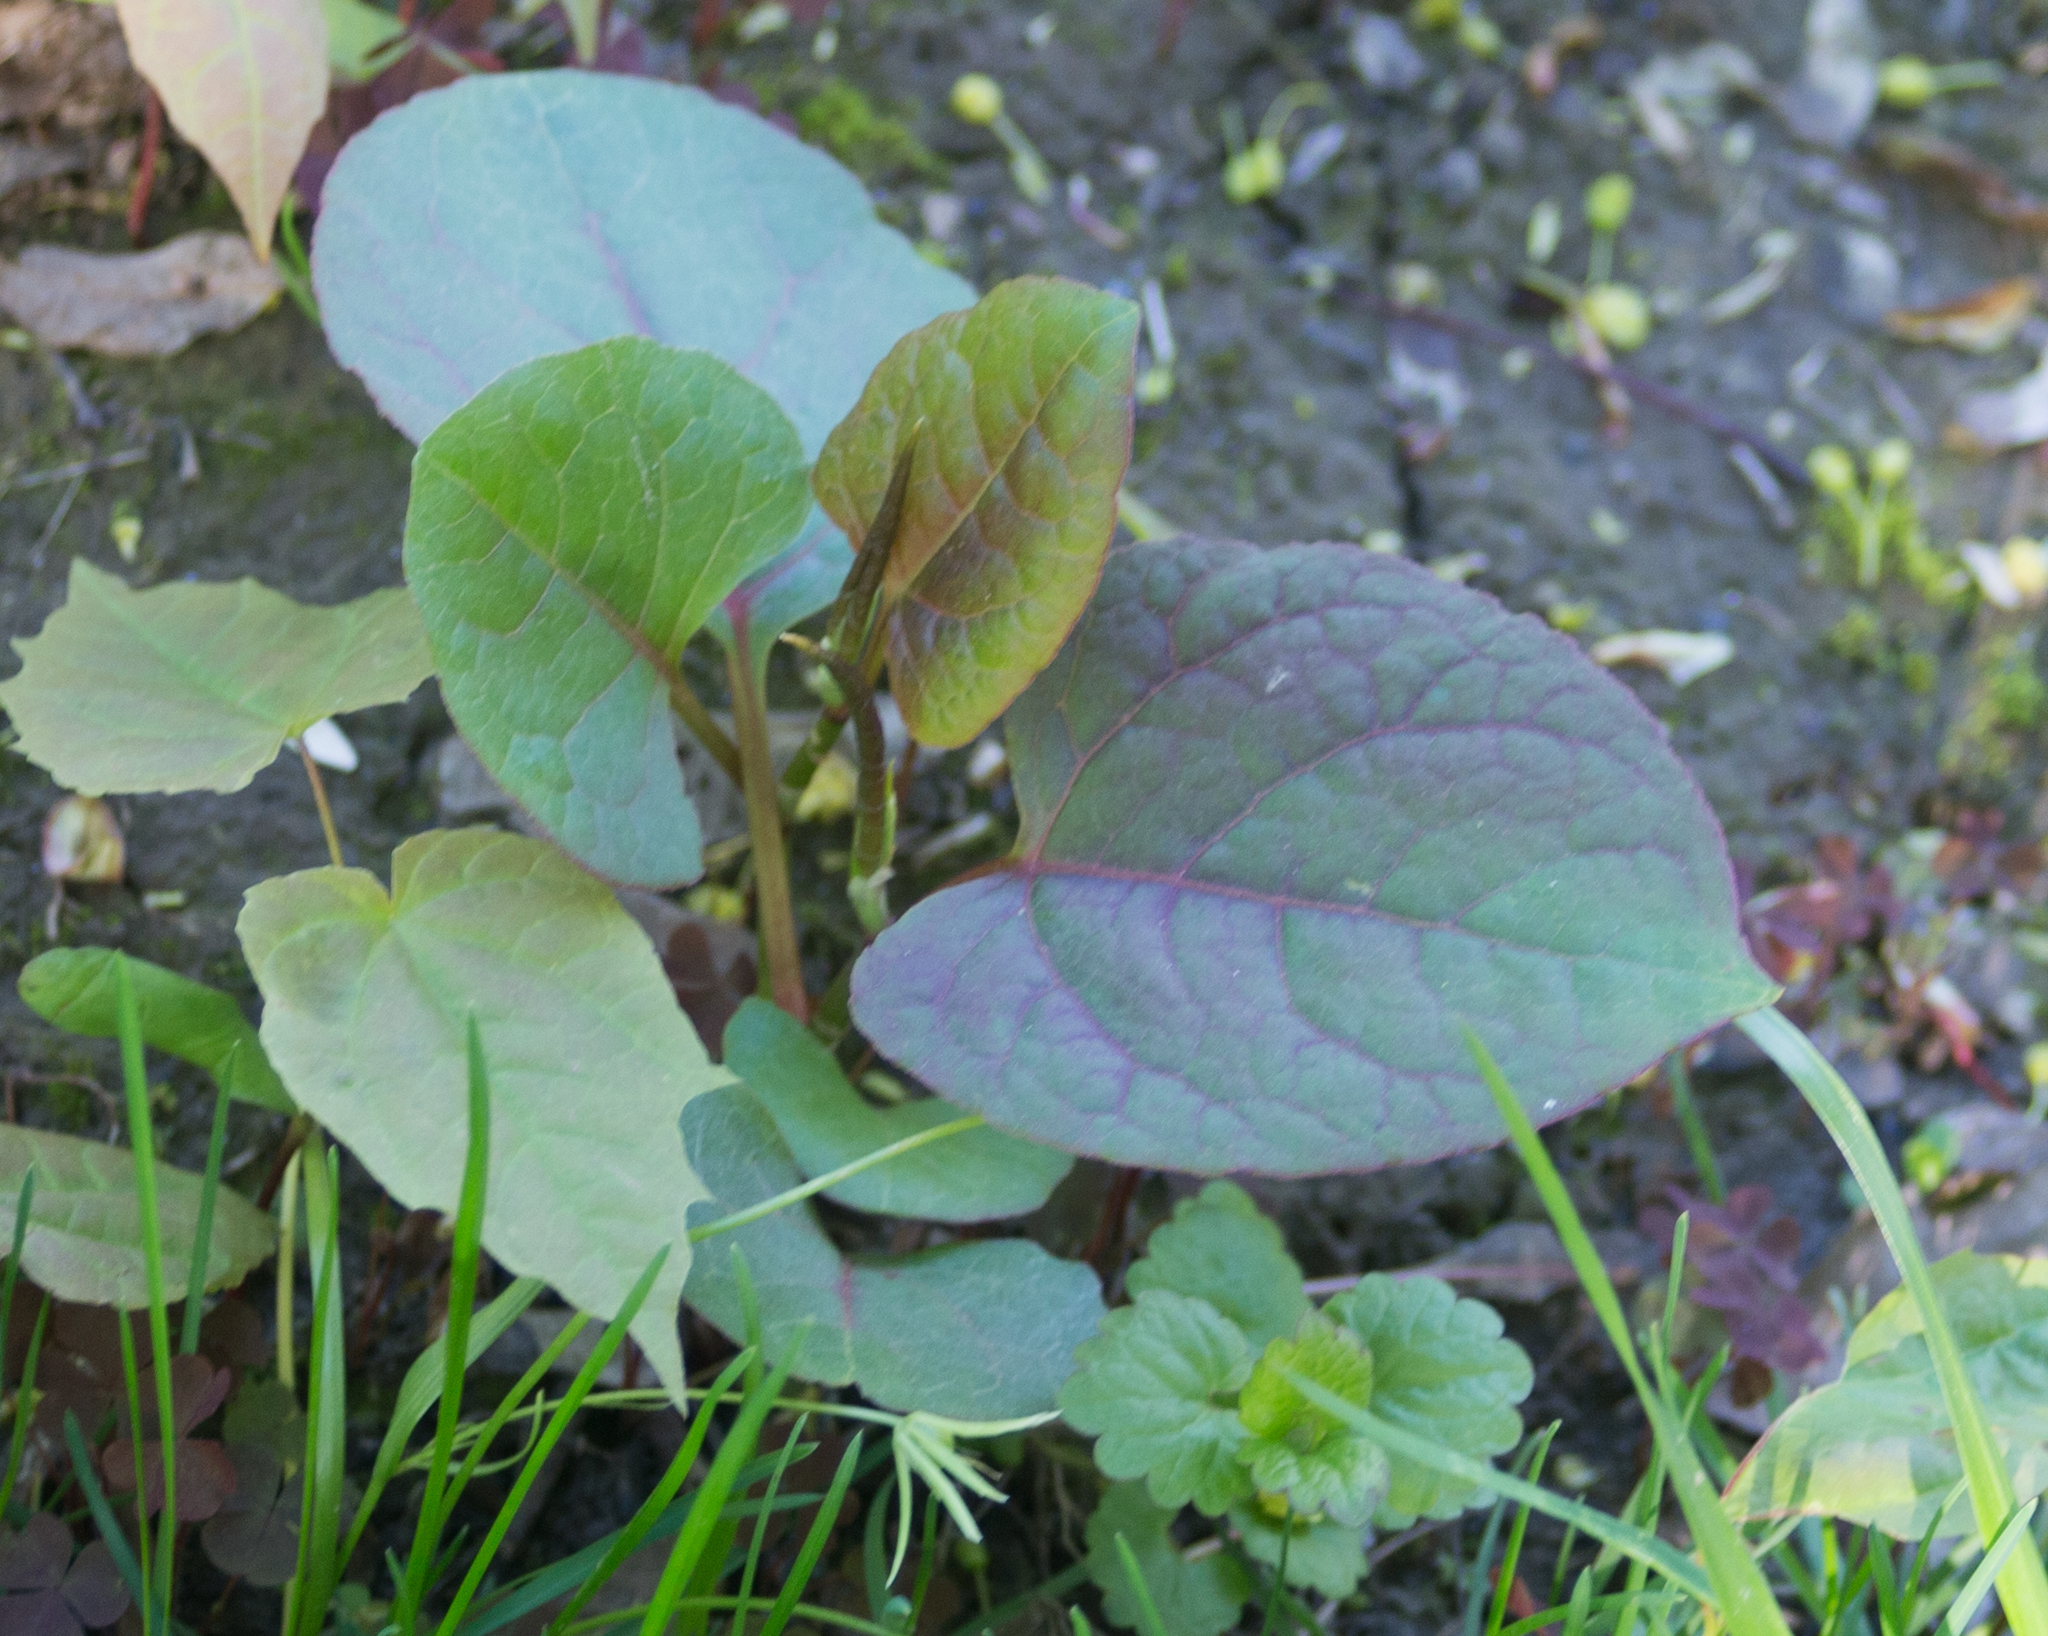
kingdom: Plantae
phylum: Tracheophyta
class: Magnoliopsida
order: Caryophyllales
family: Polygonaceae
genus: Reynoutria
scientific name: Reynoutria bohemica
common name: Bohemian knotweed
